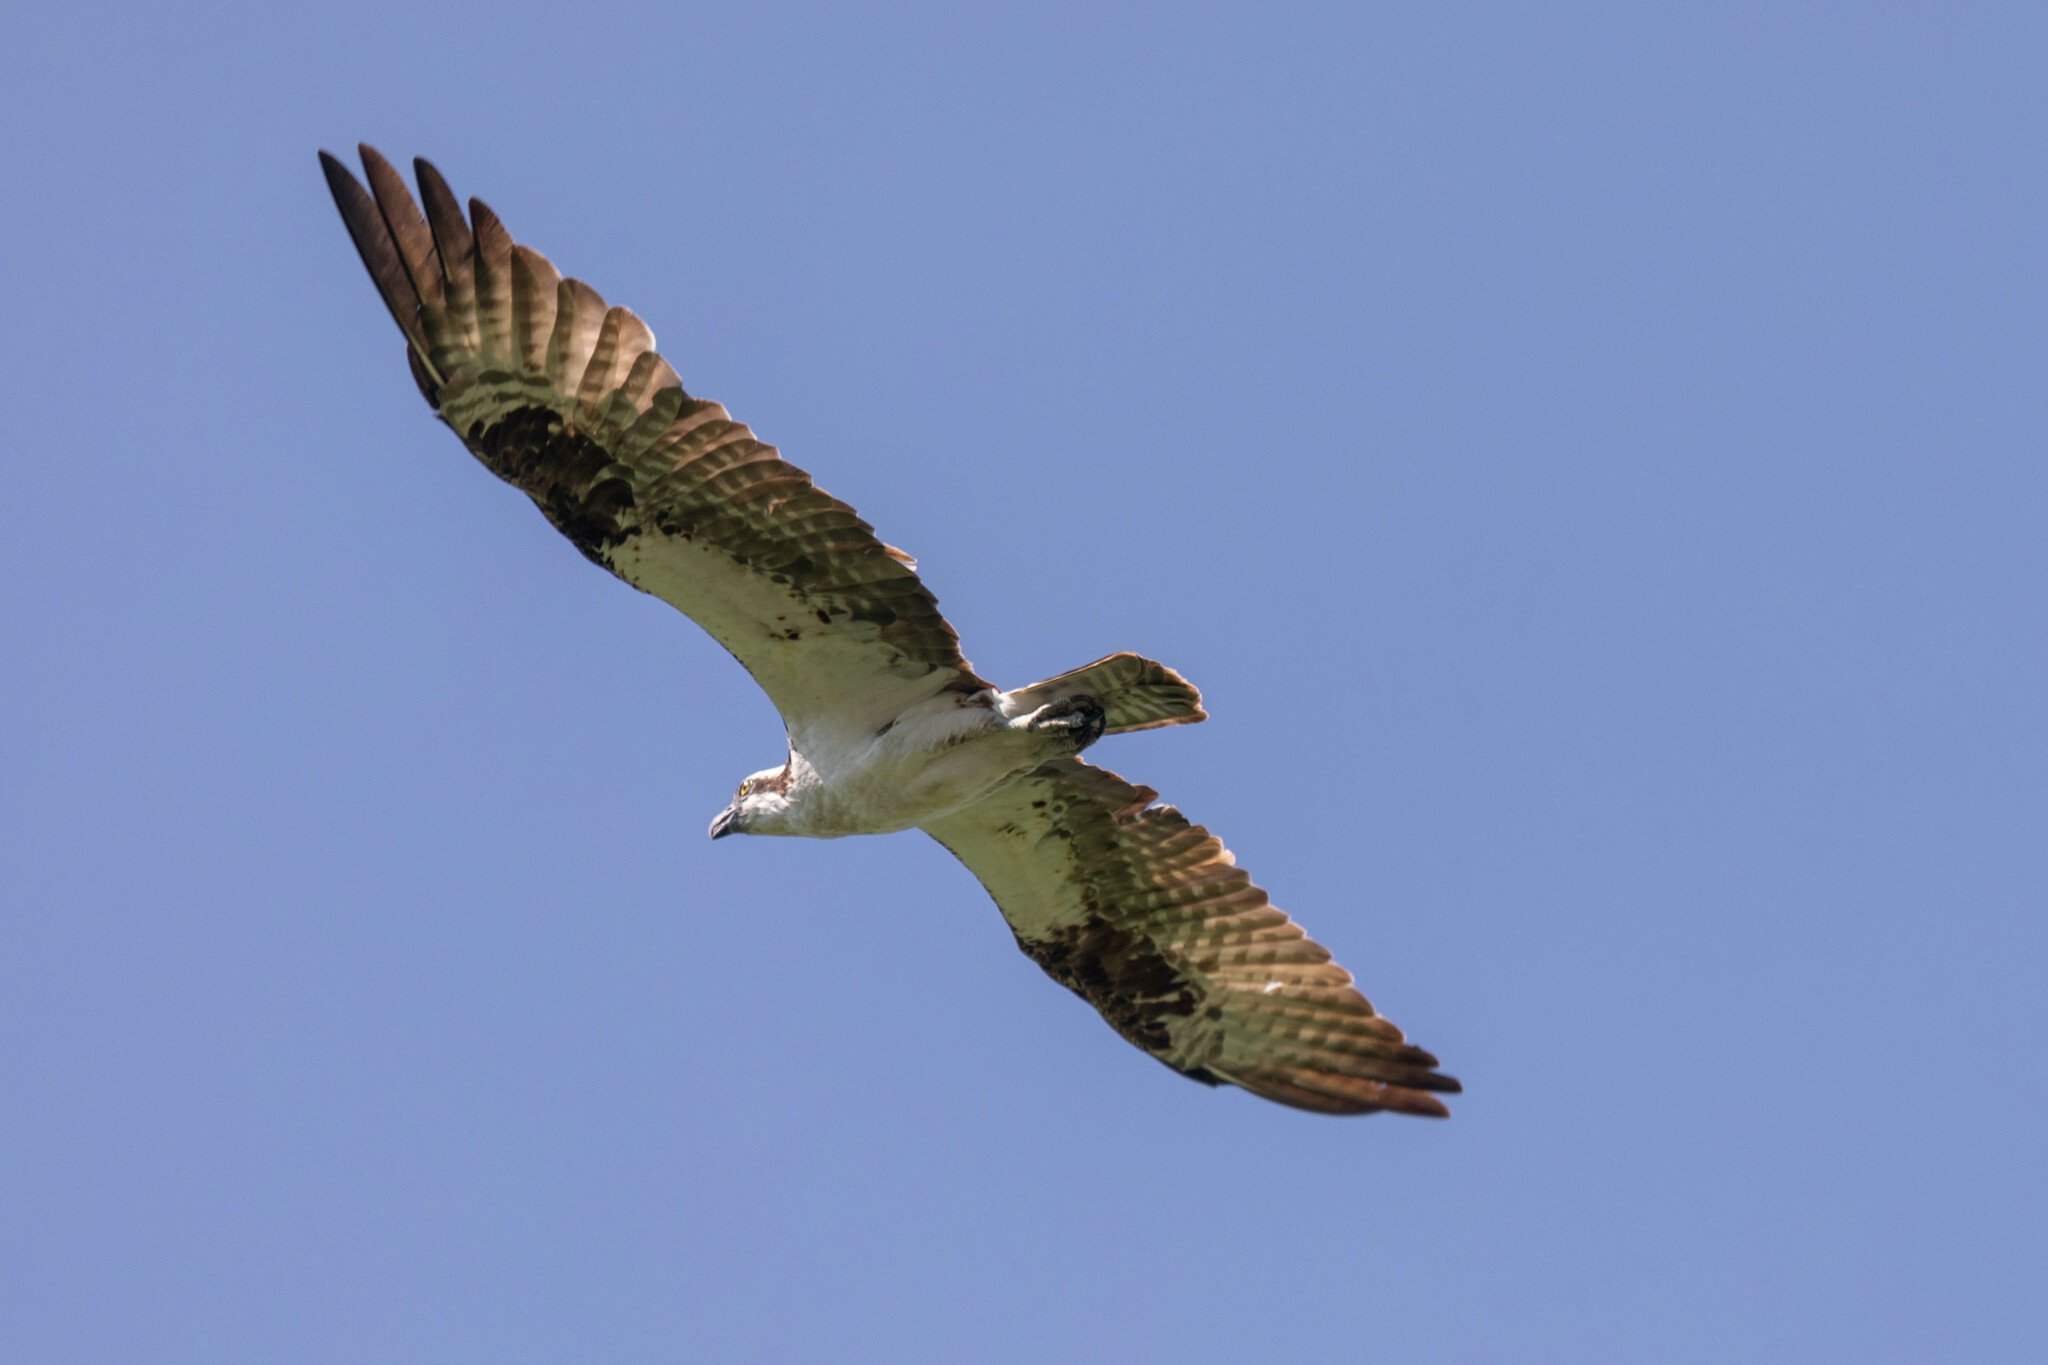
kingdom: Animalia
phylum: Chordata
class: Aves
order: Accipitriformes
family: Pandionidae
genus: Pandion
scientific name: Pandion haliaetus
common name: Osprey
